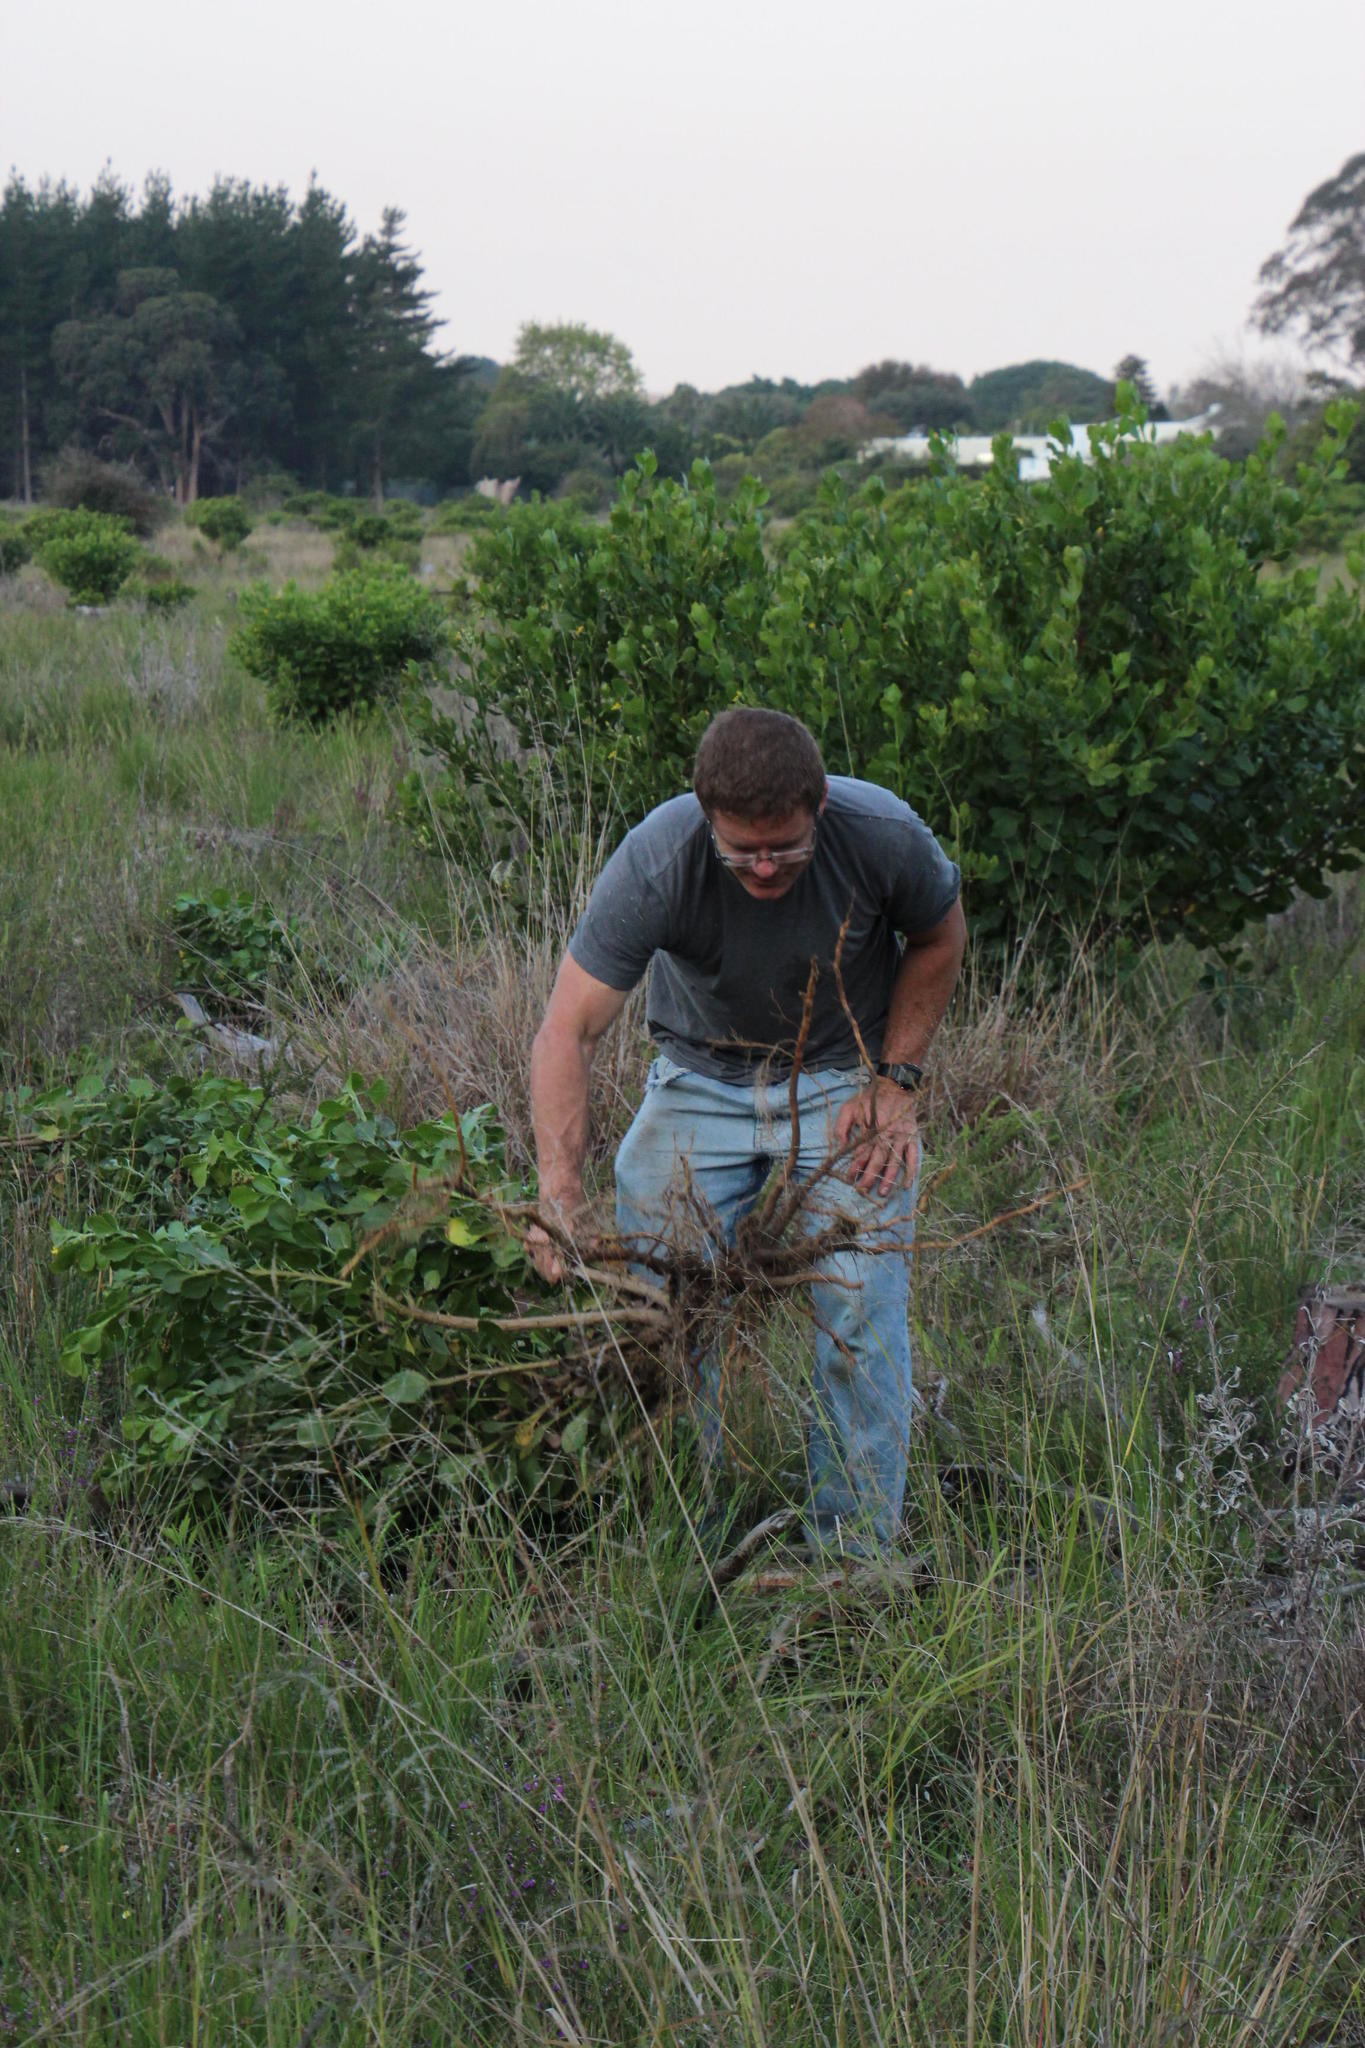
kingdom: Plantae
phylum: Tracheophyta
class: Magnoliopsida
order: Asterales
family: Asteraceae
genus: Osteospermum
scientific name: Osteospermum moniliferum
